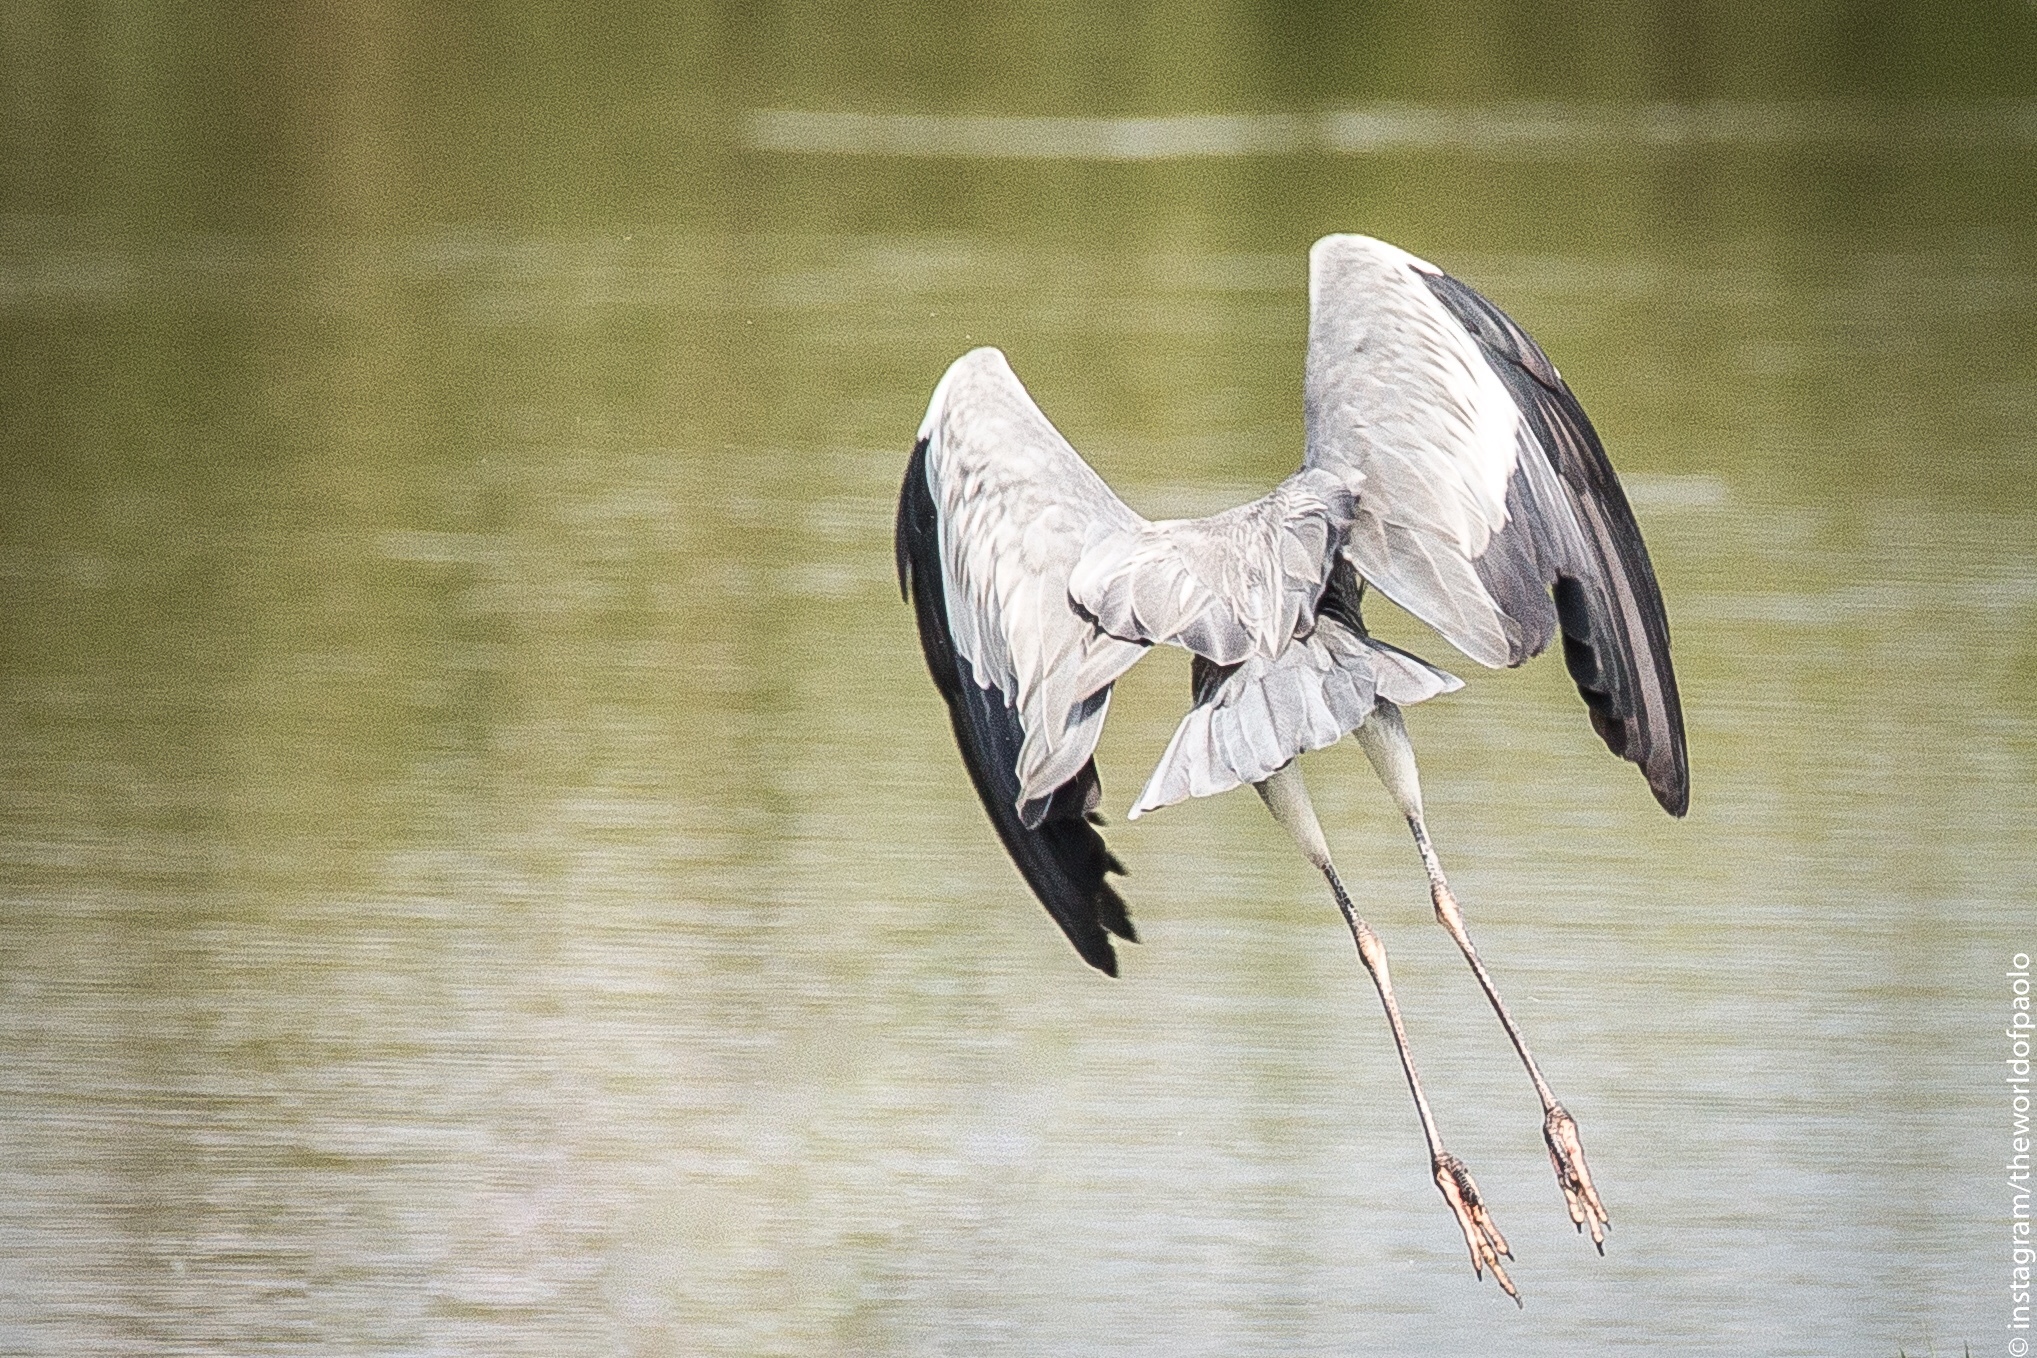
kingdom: Animalia
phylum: Chordata
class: Aves
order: Pelecaniformes
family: Ardeidae
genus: Ardea
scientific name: Ardea cinerea
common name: Grey heron
